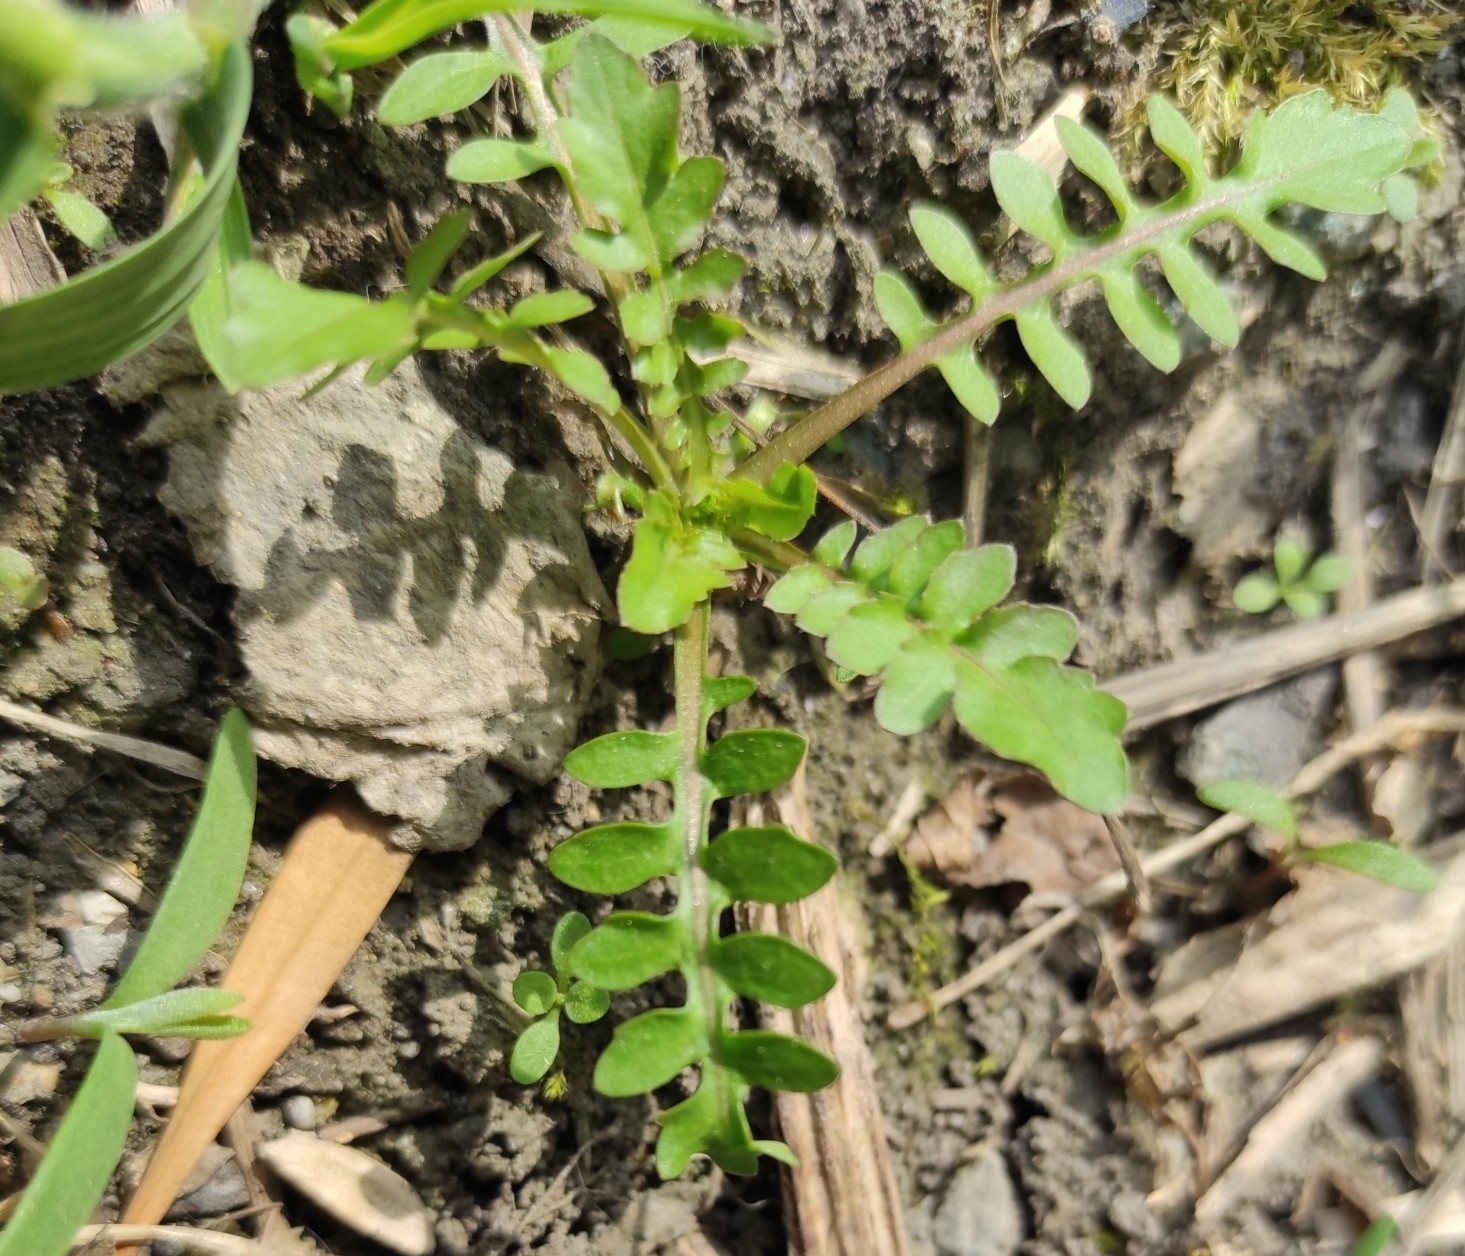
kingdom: Plantae
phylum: Tracheophyta
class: Magnoliopsida
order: Brassicales
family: Brassicaceae
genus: Rorippa
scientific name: Rorippa
